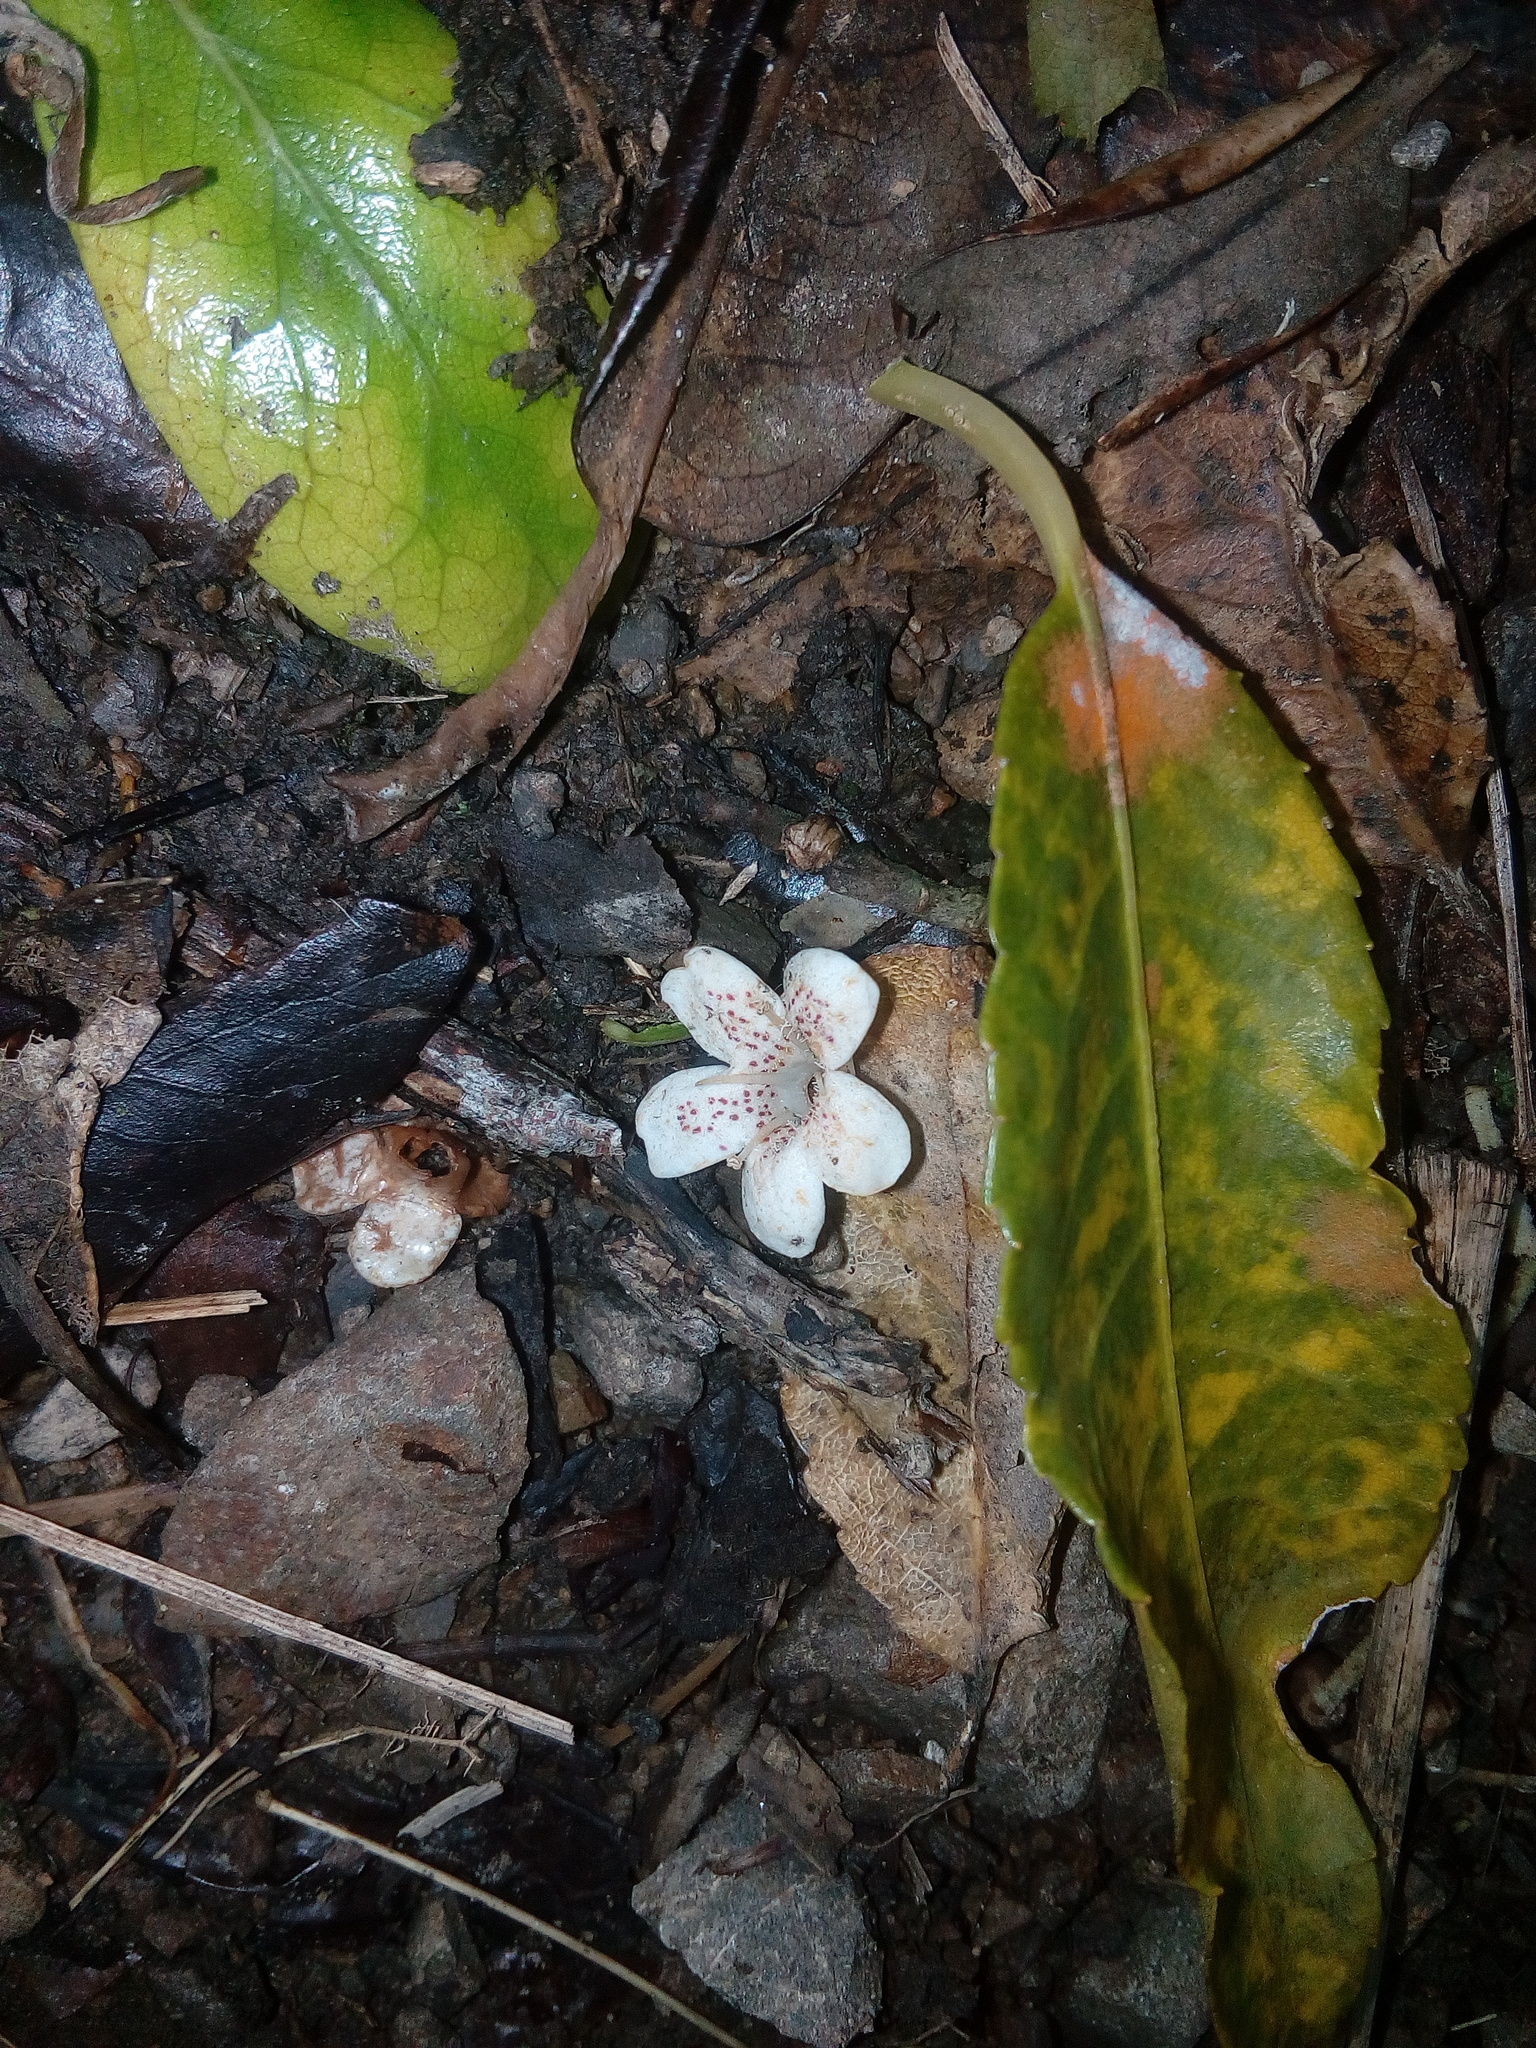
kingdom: Plantae
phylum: Tracheophyta
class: Magnoliopsida
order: Lamiales
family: Scrophulariaceae
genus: Myoporum
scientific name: Myoporum laetum
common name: Ngaio tree
